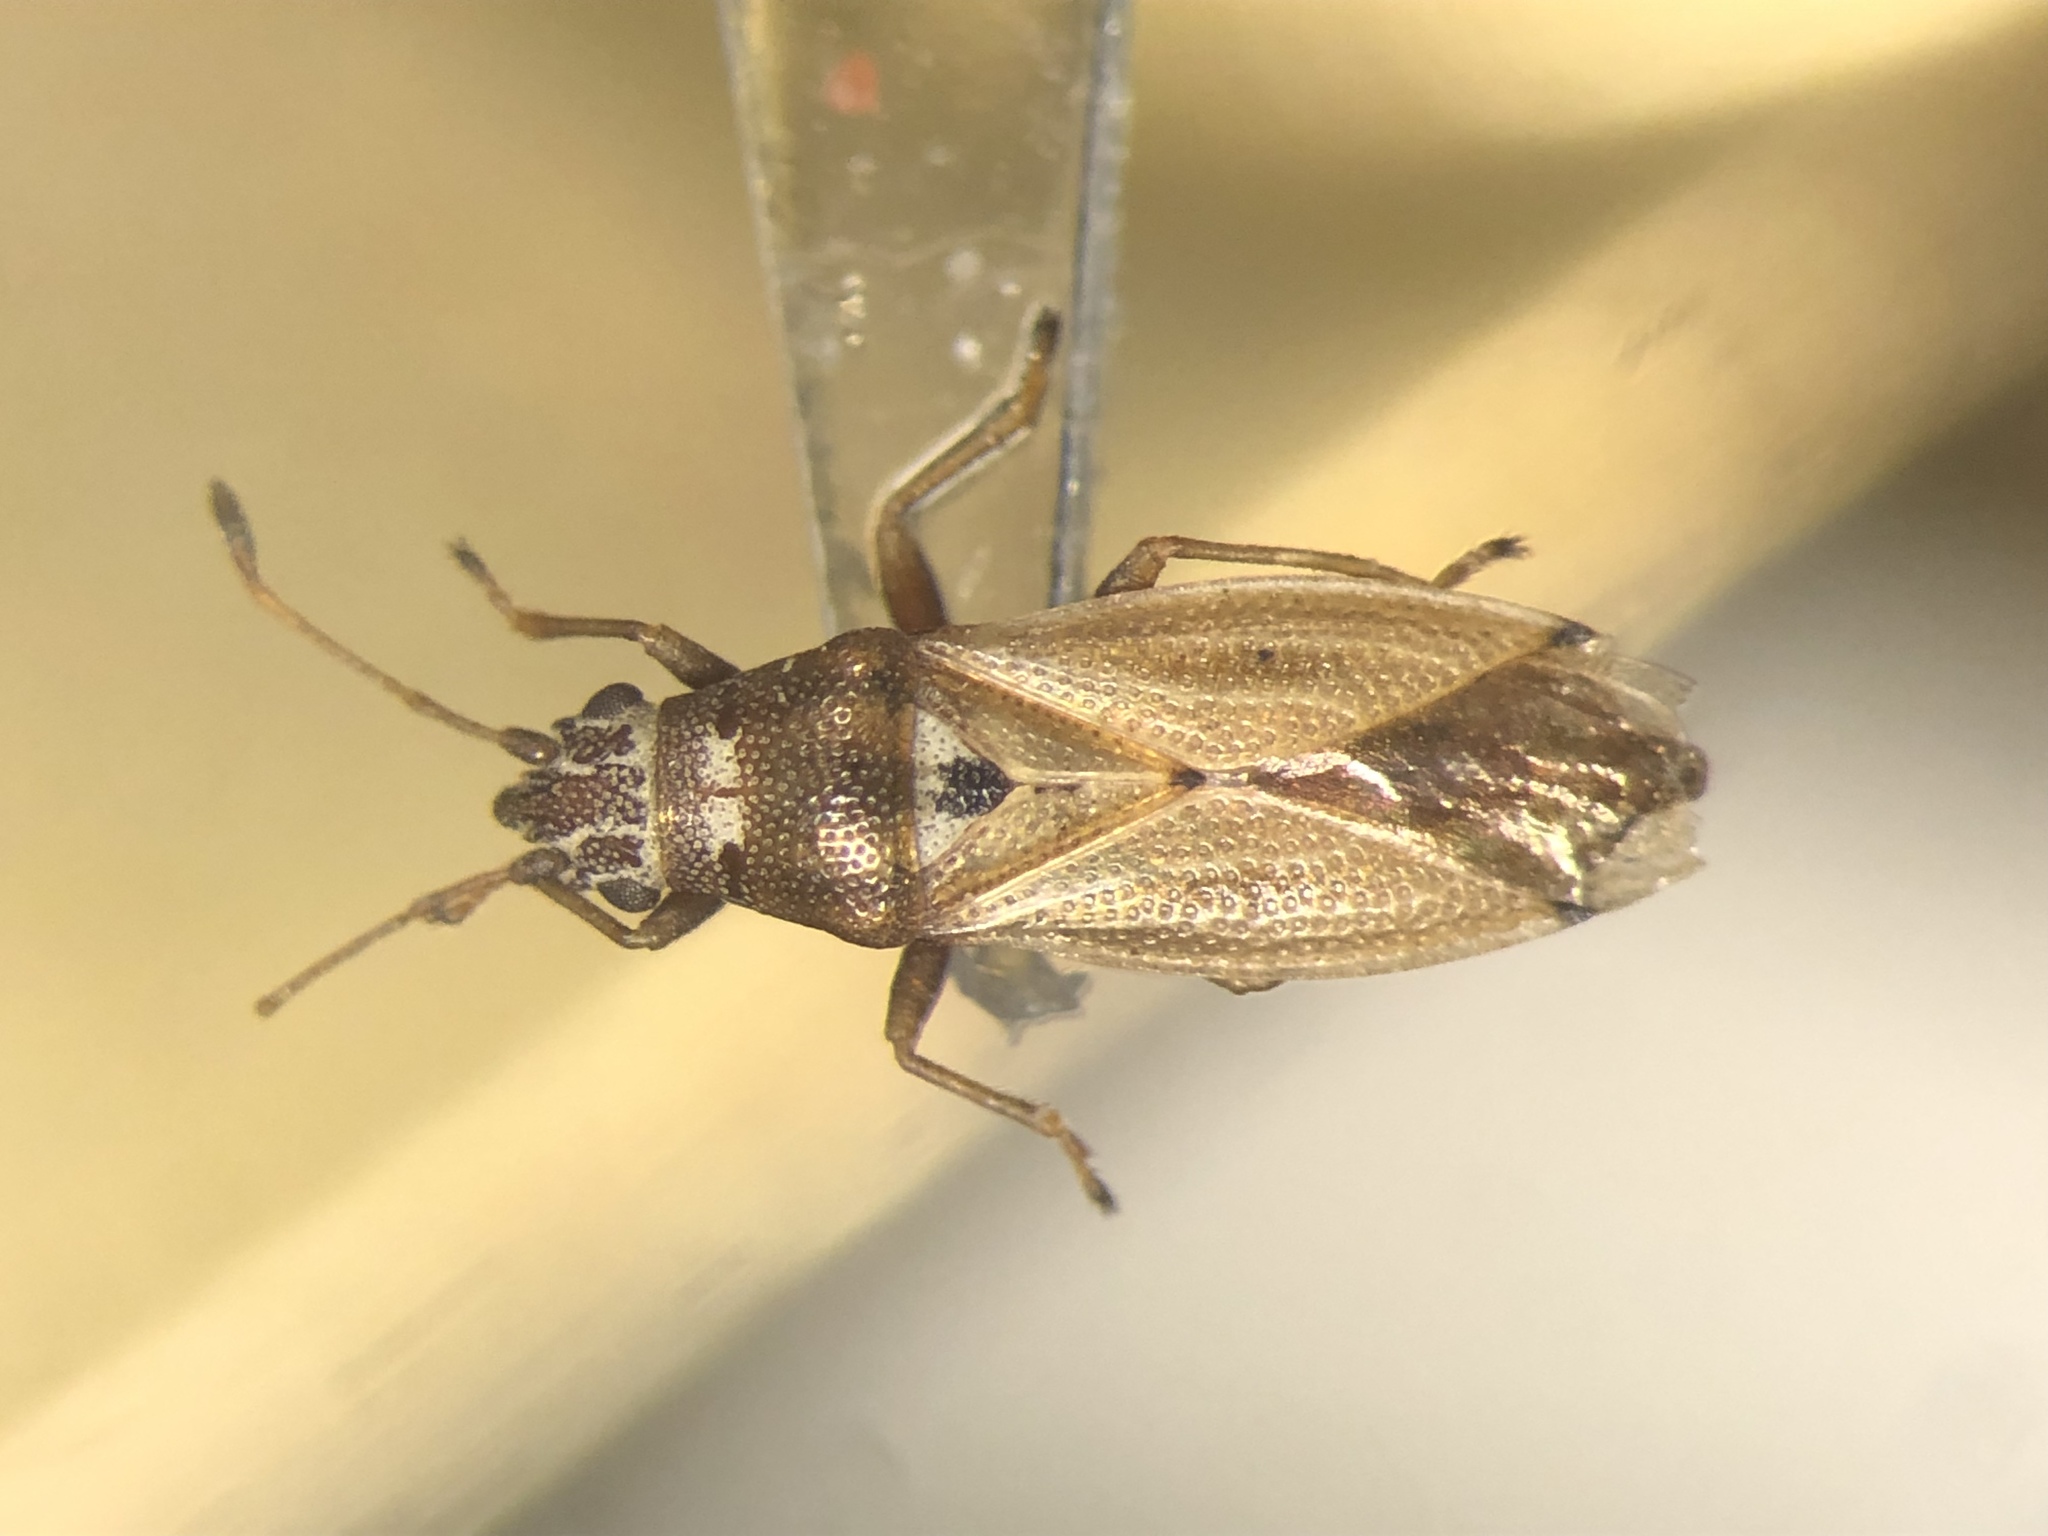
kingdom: Animalia
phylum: Arthropoda
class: Insecta
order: Hemiptera
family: Cymidae
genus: Cymus
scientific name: Cymus angustatus
